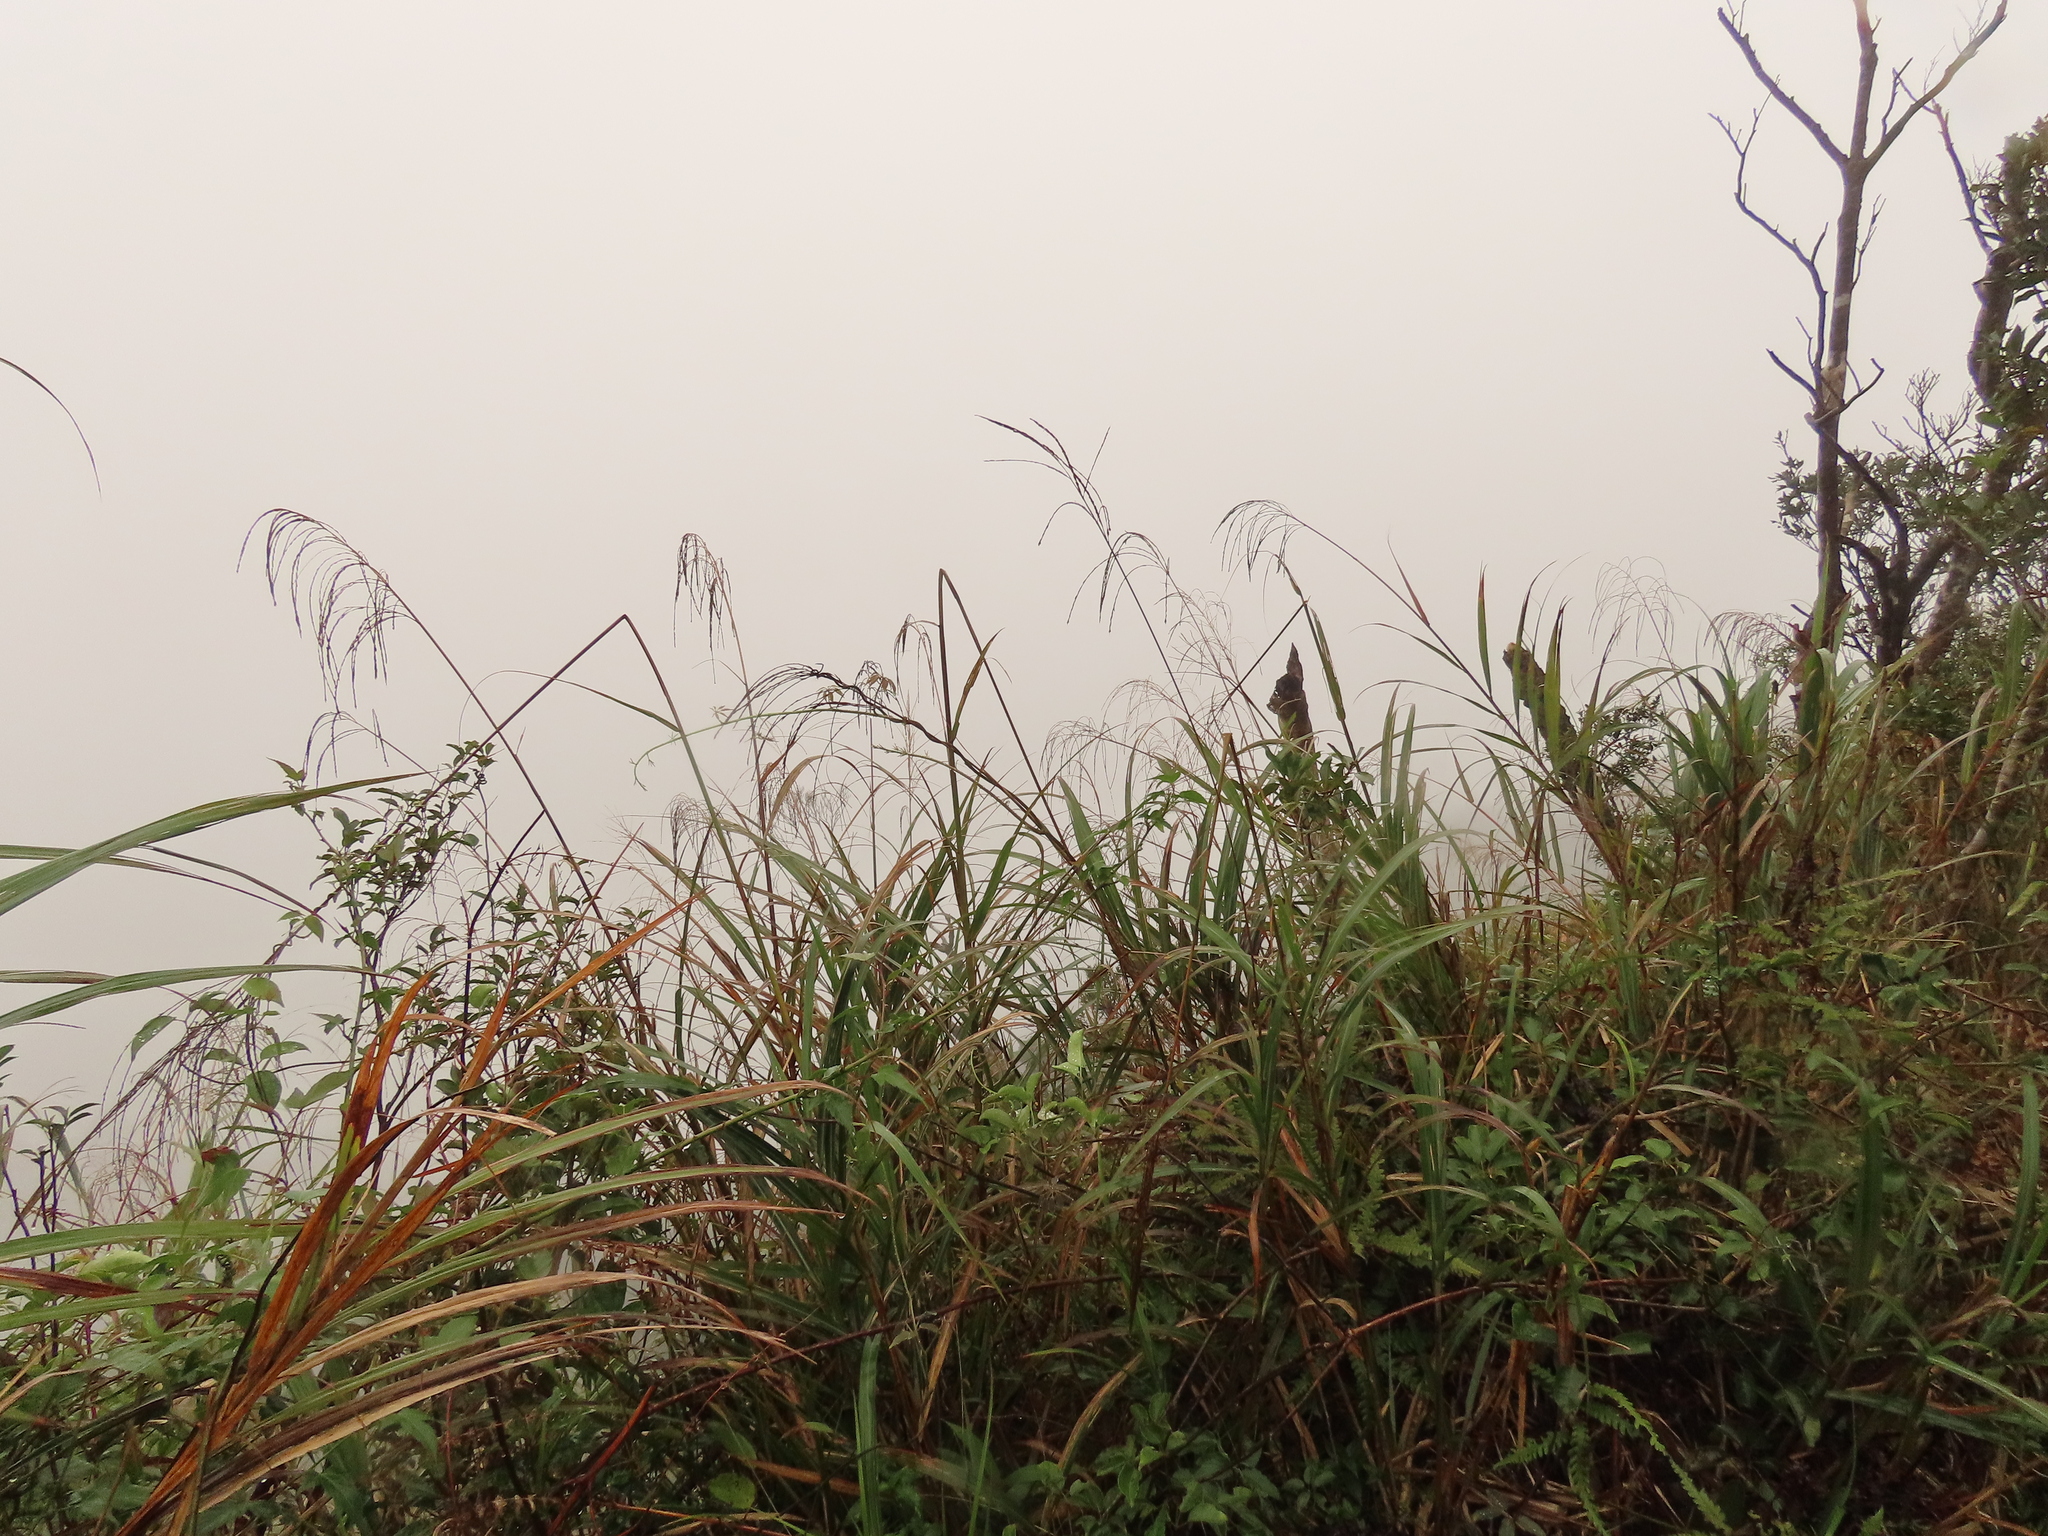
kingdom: Plantae
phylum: Tracheophyta
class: Liliopsida
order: Poales
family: Poaceae
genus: Miscanthus
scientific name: Miscanthus sinensis
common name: Chinese silvergrass
